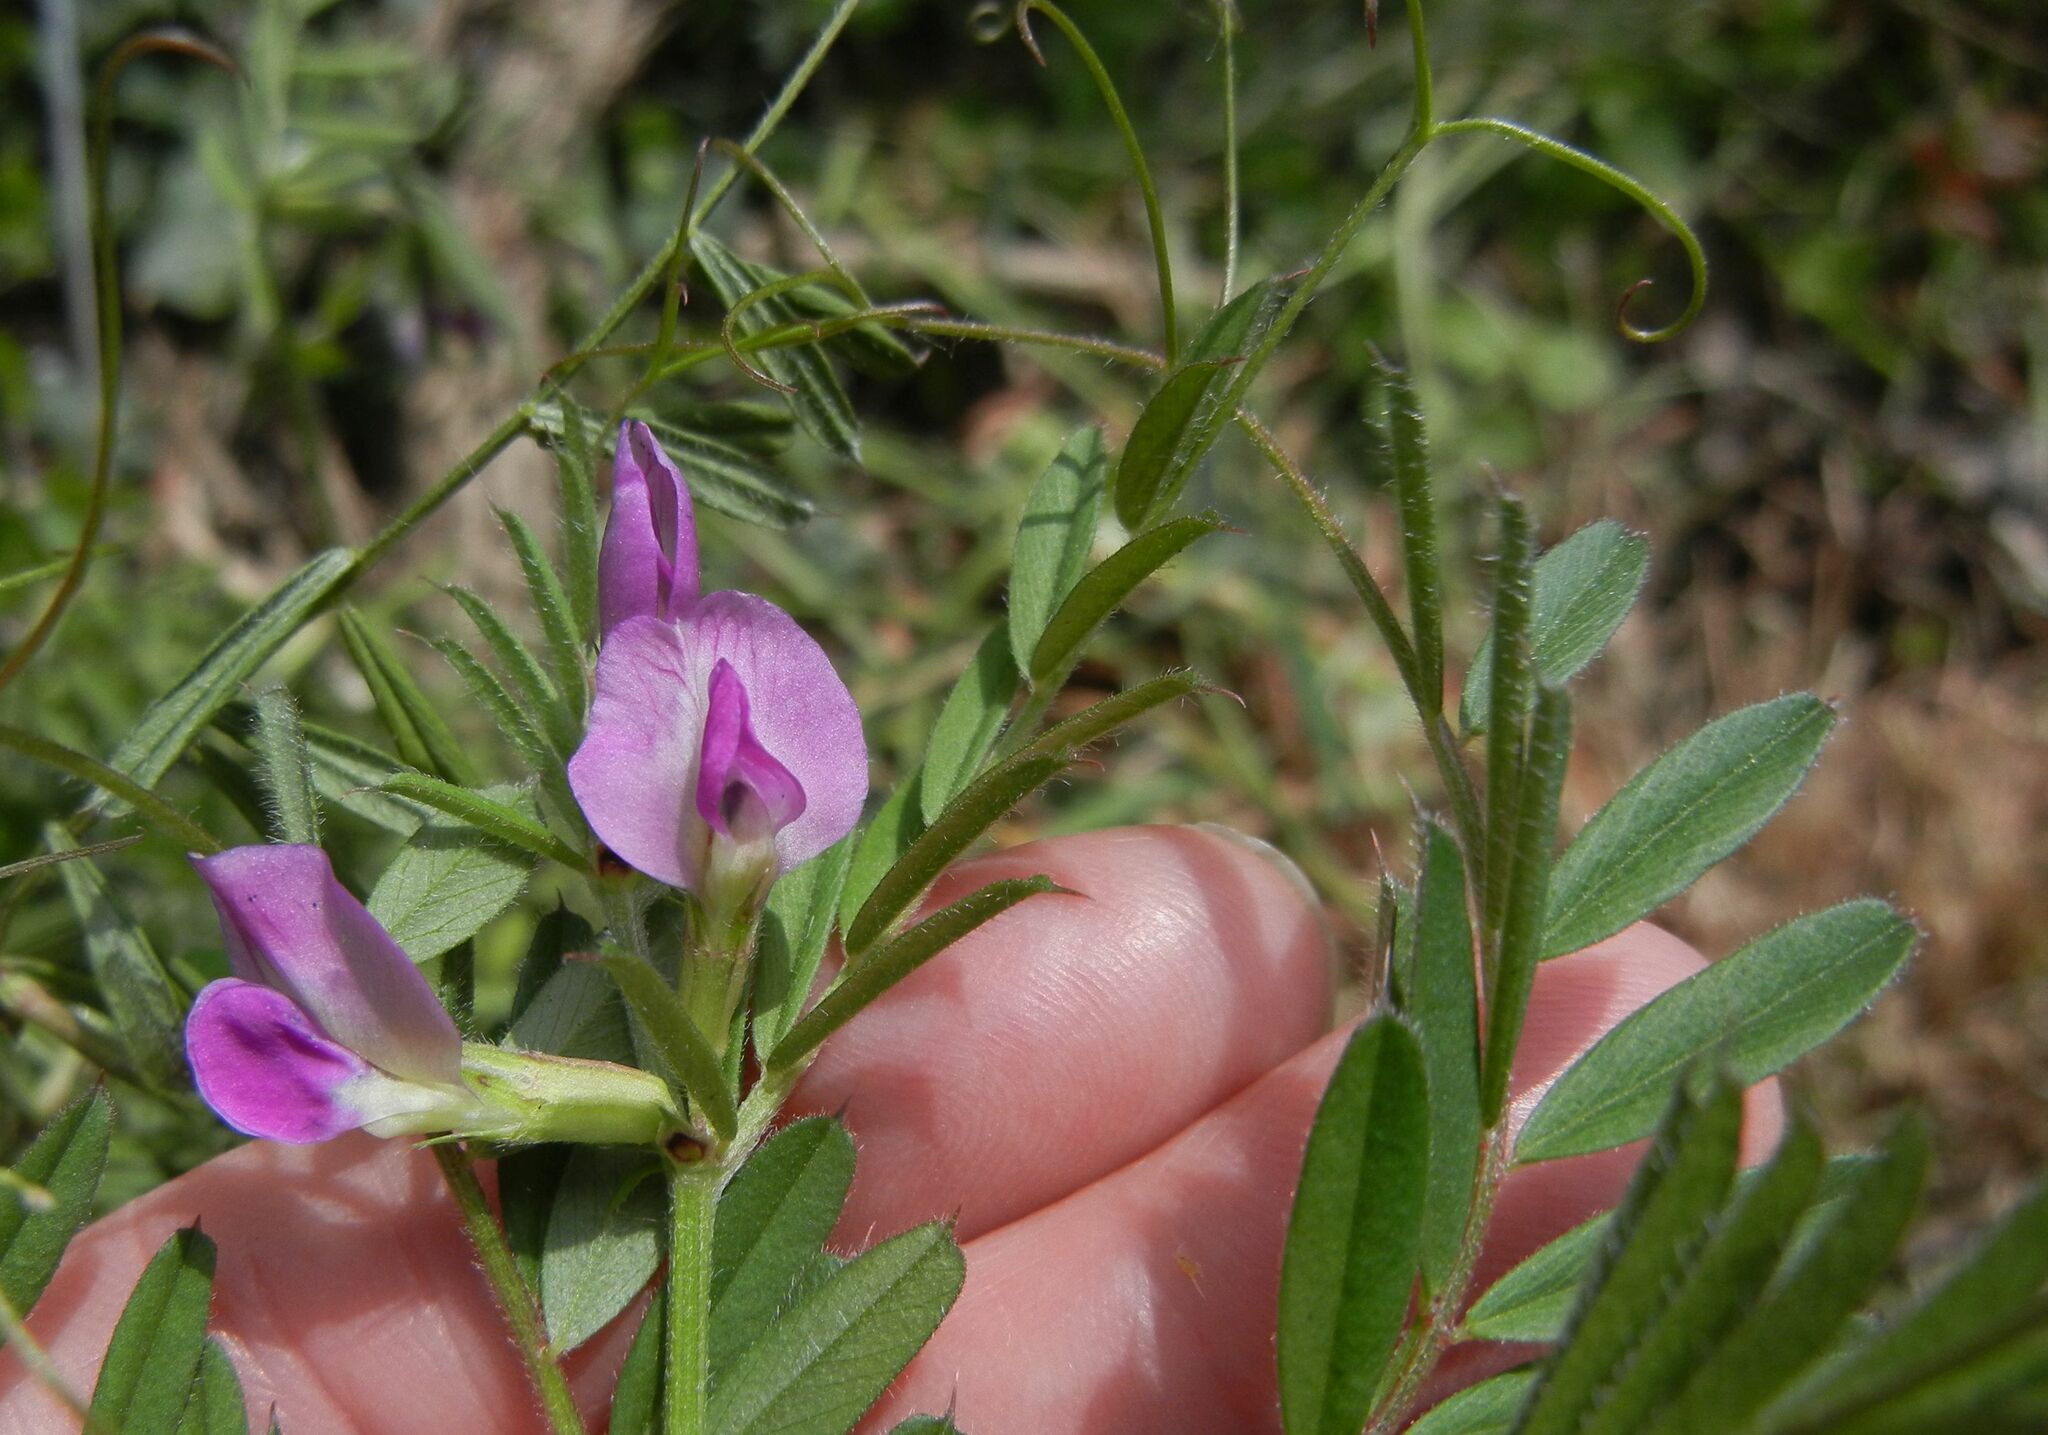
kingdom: Plantae
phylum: Tracheophyta
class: Magnoliopsida
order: Fabales
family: Fabaceae
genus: Vicia
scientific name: Vicia sativa
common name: Garden vetch
